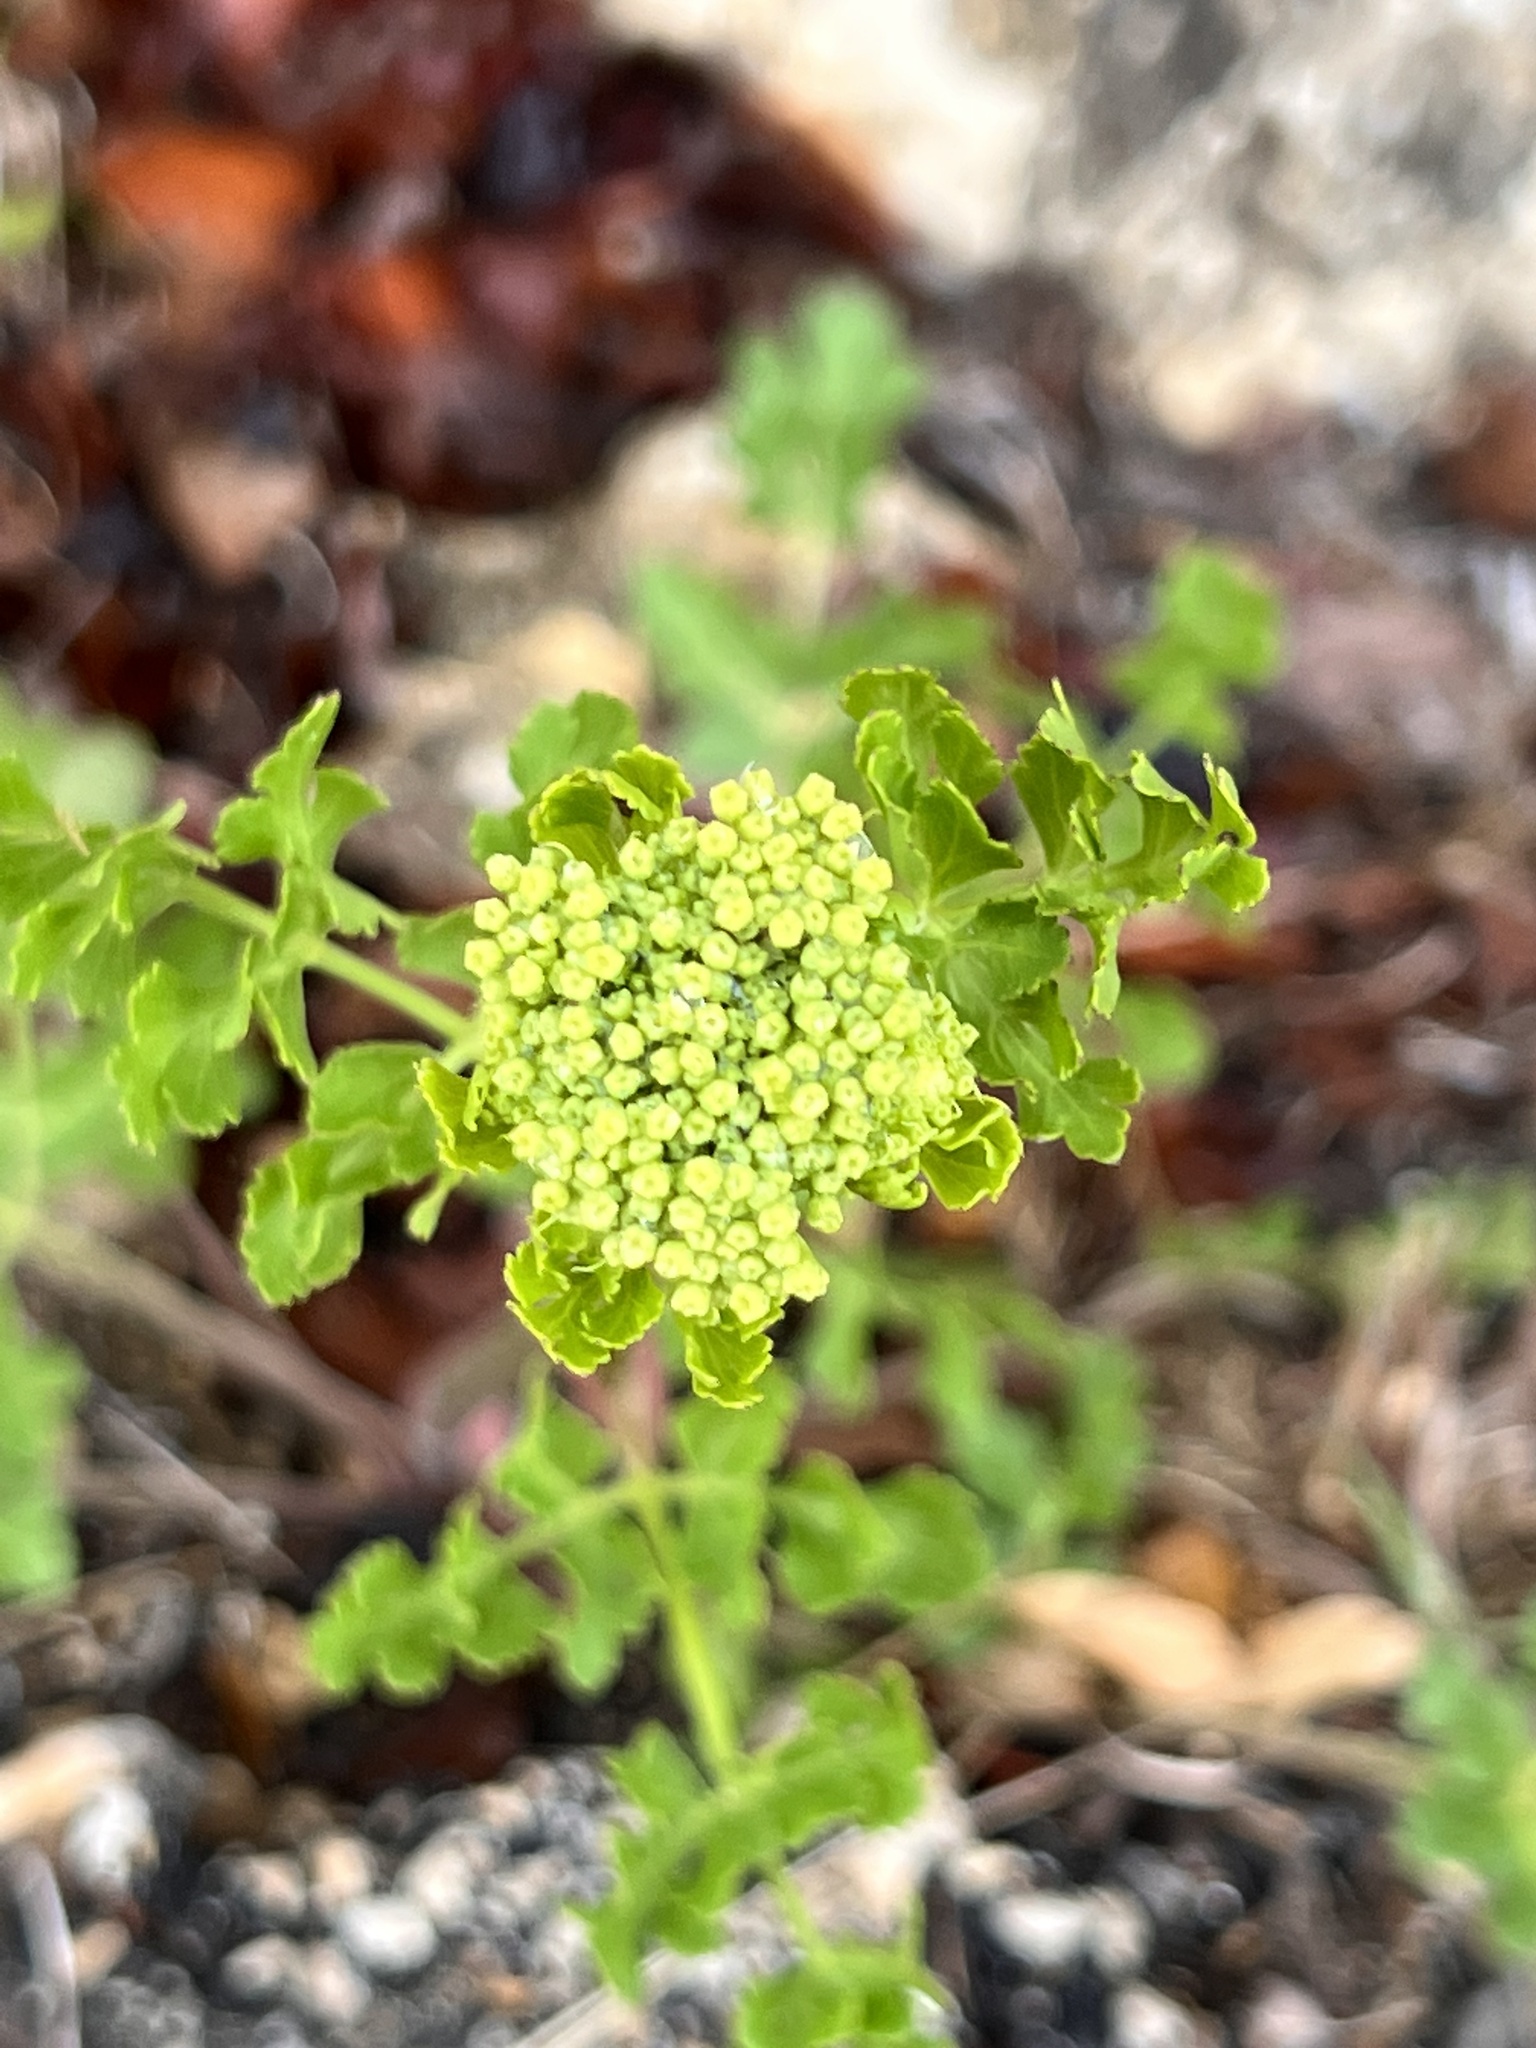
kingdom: Plantae
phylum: Tracheophyta
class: Magnoliopsida
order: Apiales
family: Apiaceae
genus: Polytaenia
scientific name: Polytaenia texana
